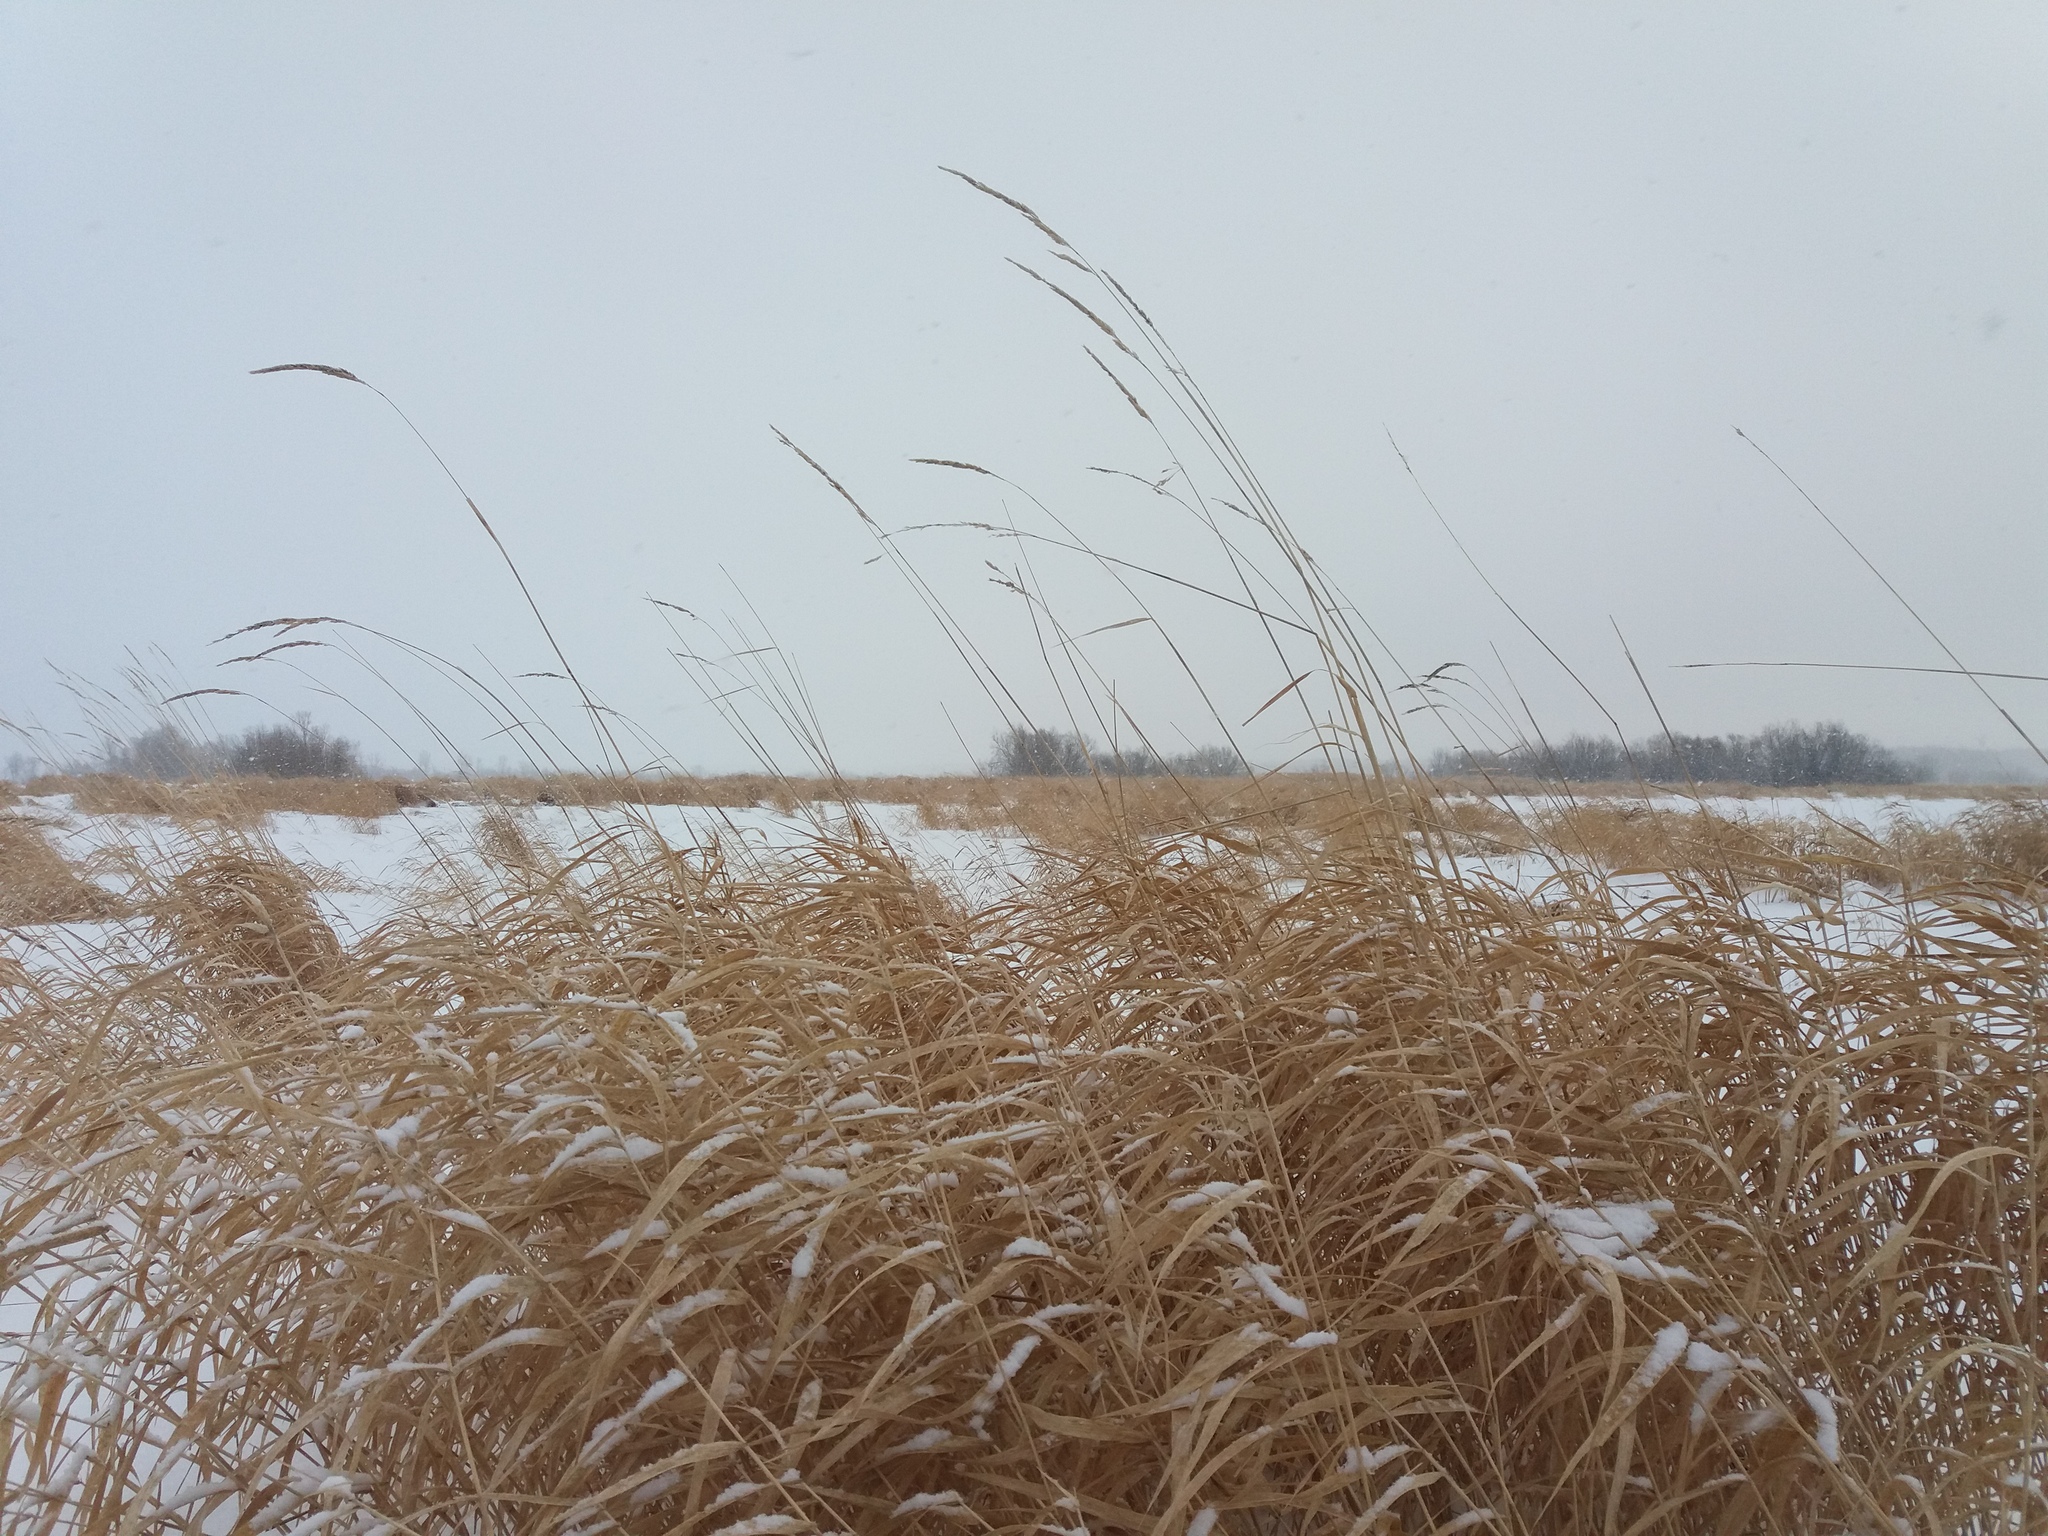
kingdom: Plantae
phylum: Tracheophyta
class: Liliopsida
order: Poales
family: Poaceae
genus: Phalaris
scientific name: Phalaris arundinacea
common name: Reed canary-grass
